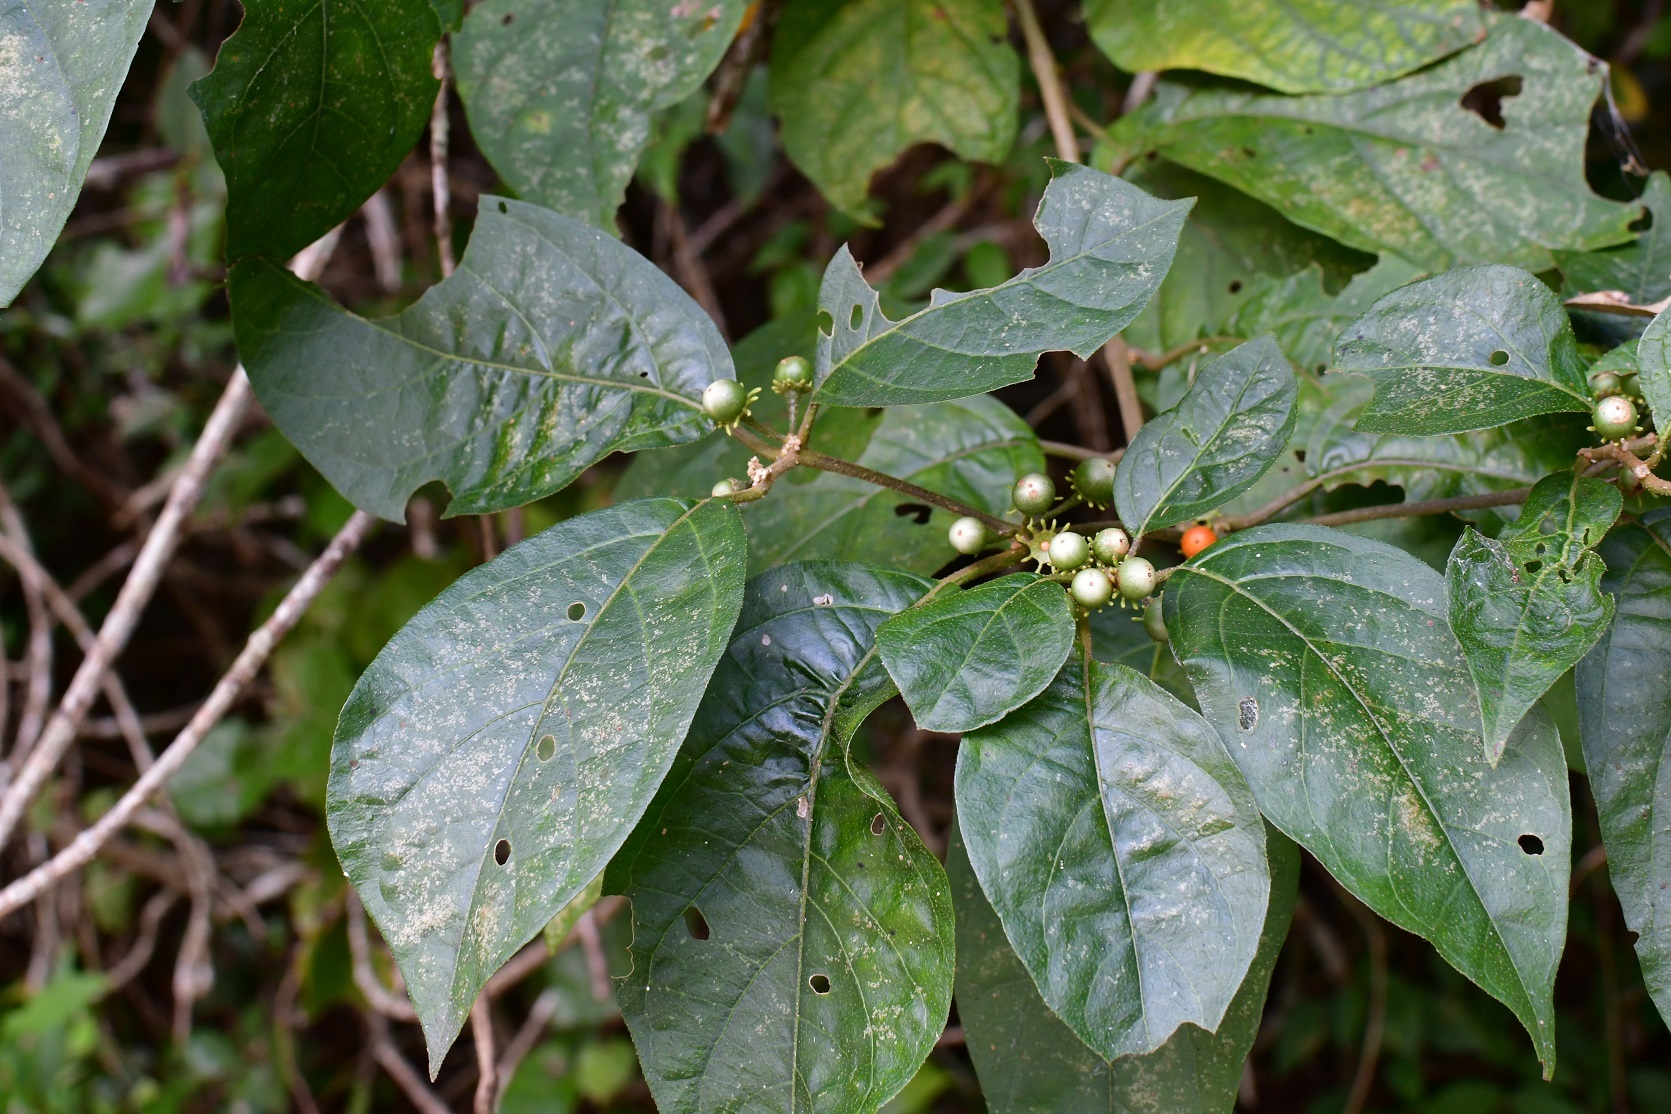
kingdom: Plantae
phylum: Tracheophyta
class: Magnoliopsida
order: Solanales
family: Solanaceae
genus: Lycianthes
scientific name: Lycianthes scandens
